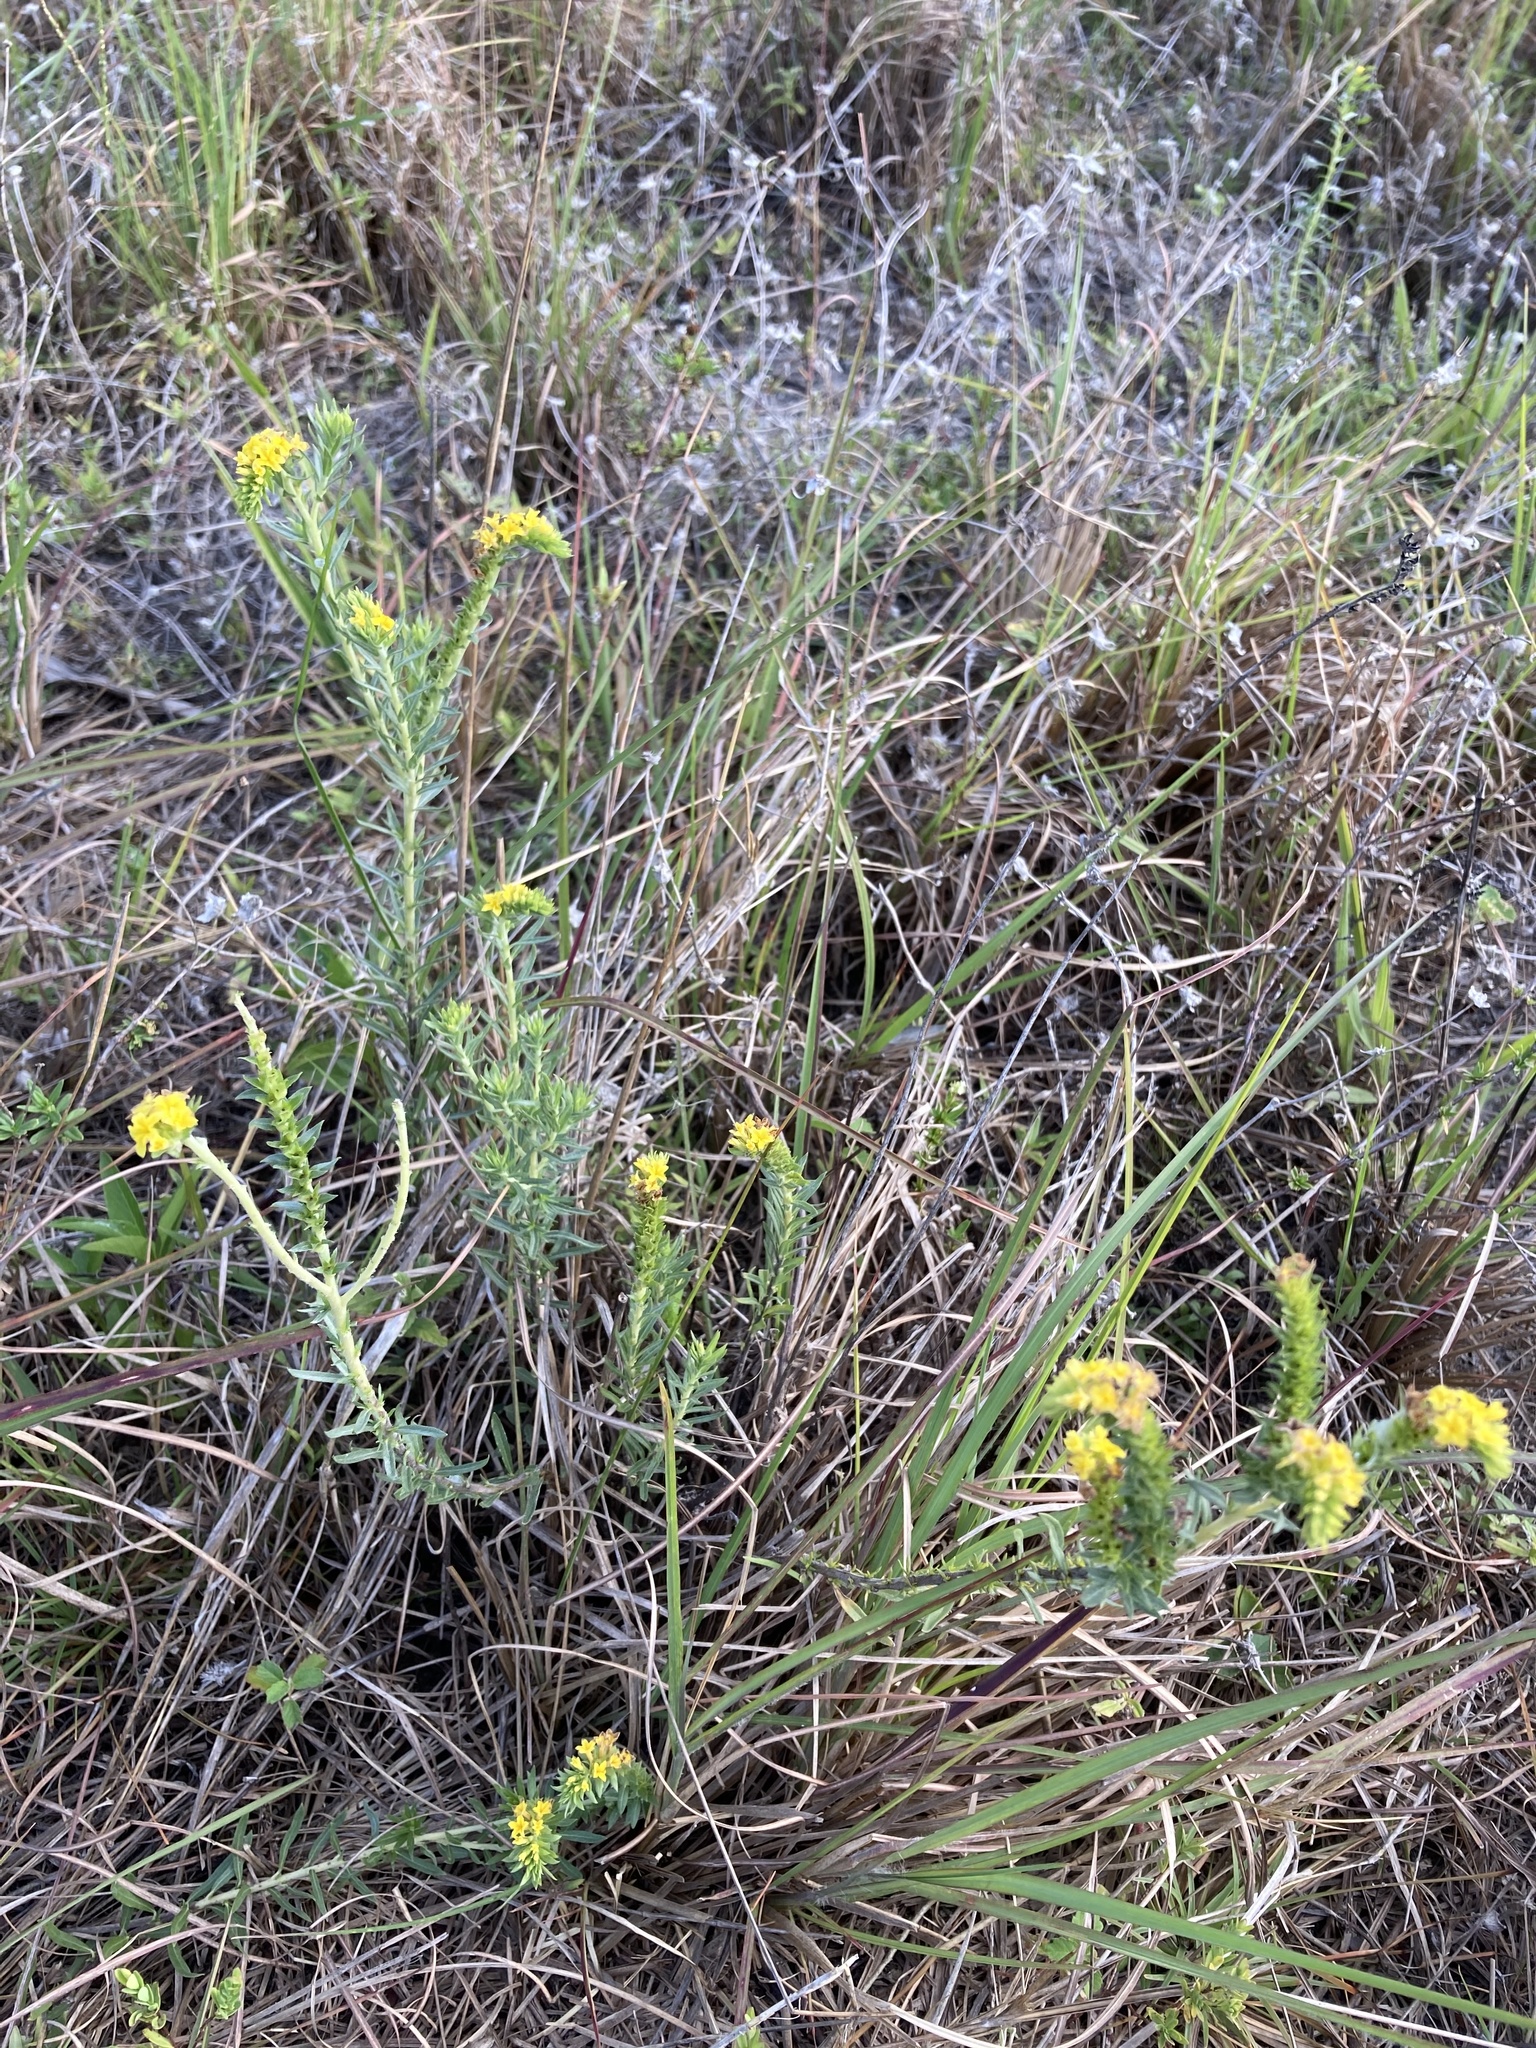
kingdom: Plantae
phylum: Tracheophyta
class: Magnoliopsida
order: Boraginales
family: Heliotropiaceae
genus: Euploca
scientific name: Euploca polyphylla
